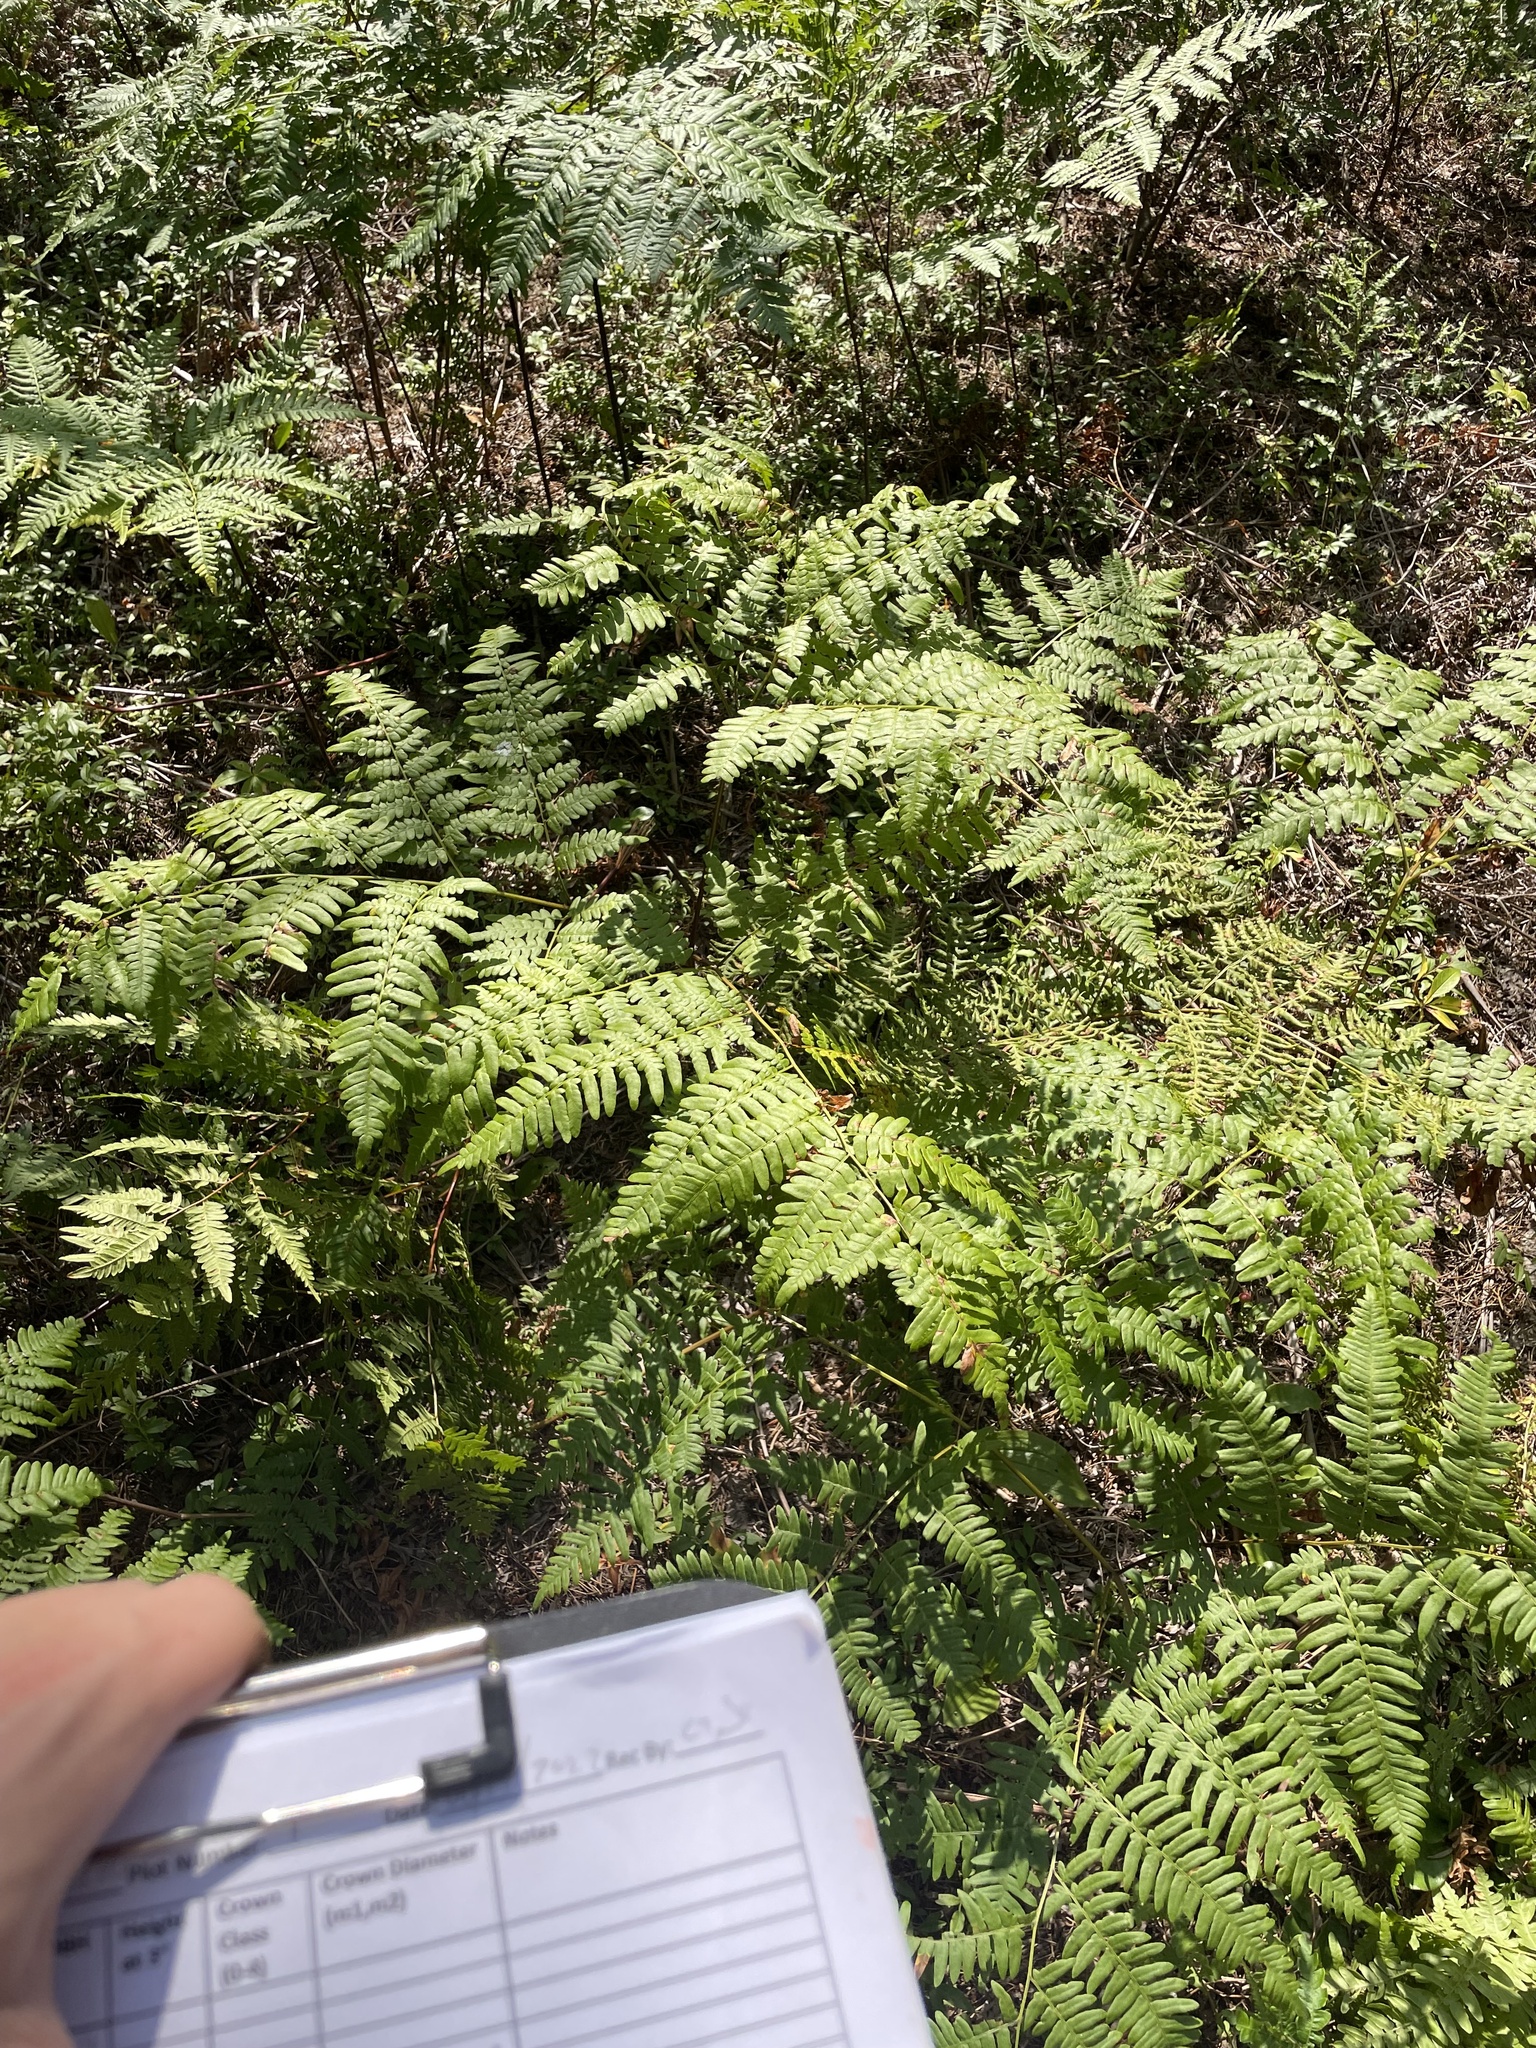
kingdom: Plantae
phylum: Tracheophyta
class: Polypodiopsida
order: Polypodiales
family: Dennstaedtiaceae
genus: Pteridium
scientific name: Pteridium aquilinum
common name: Bracken
